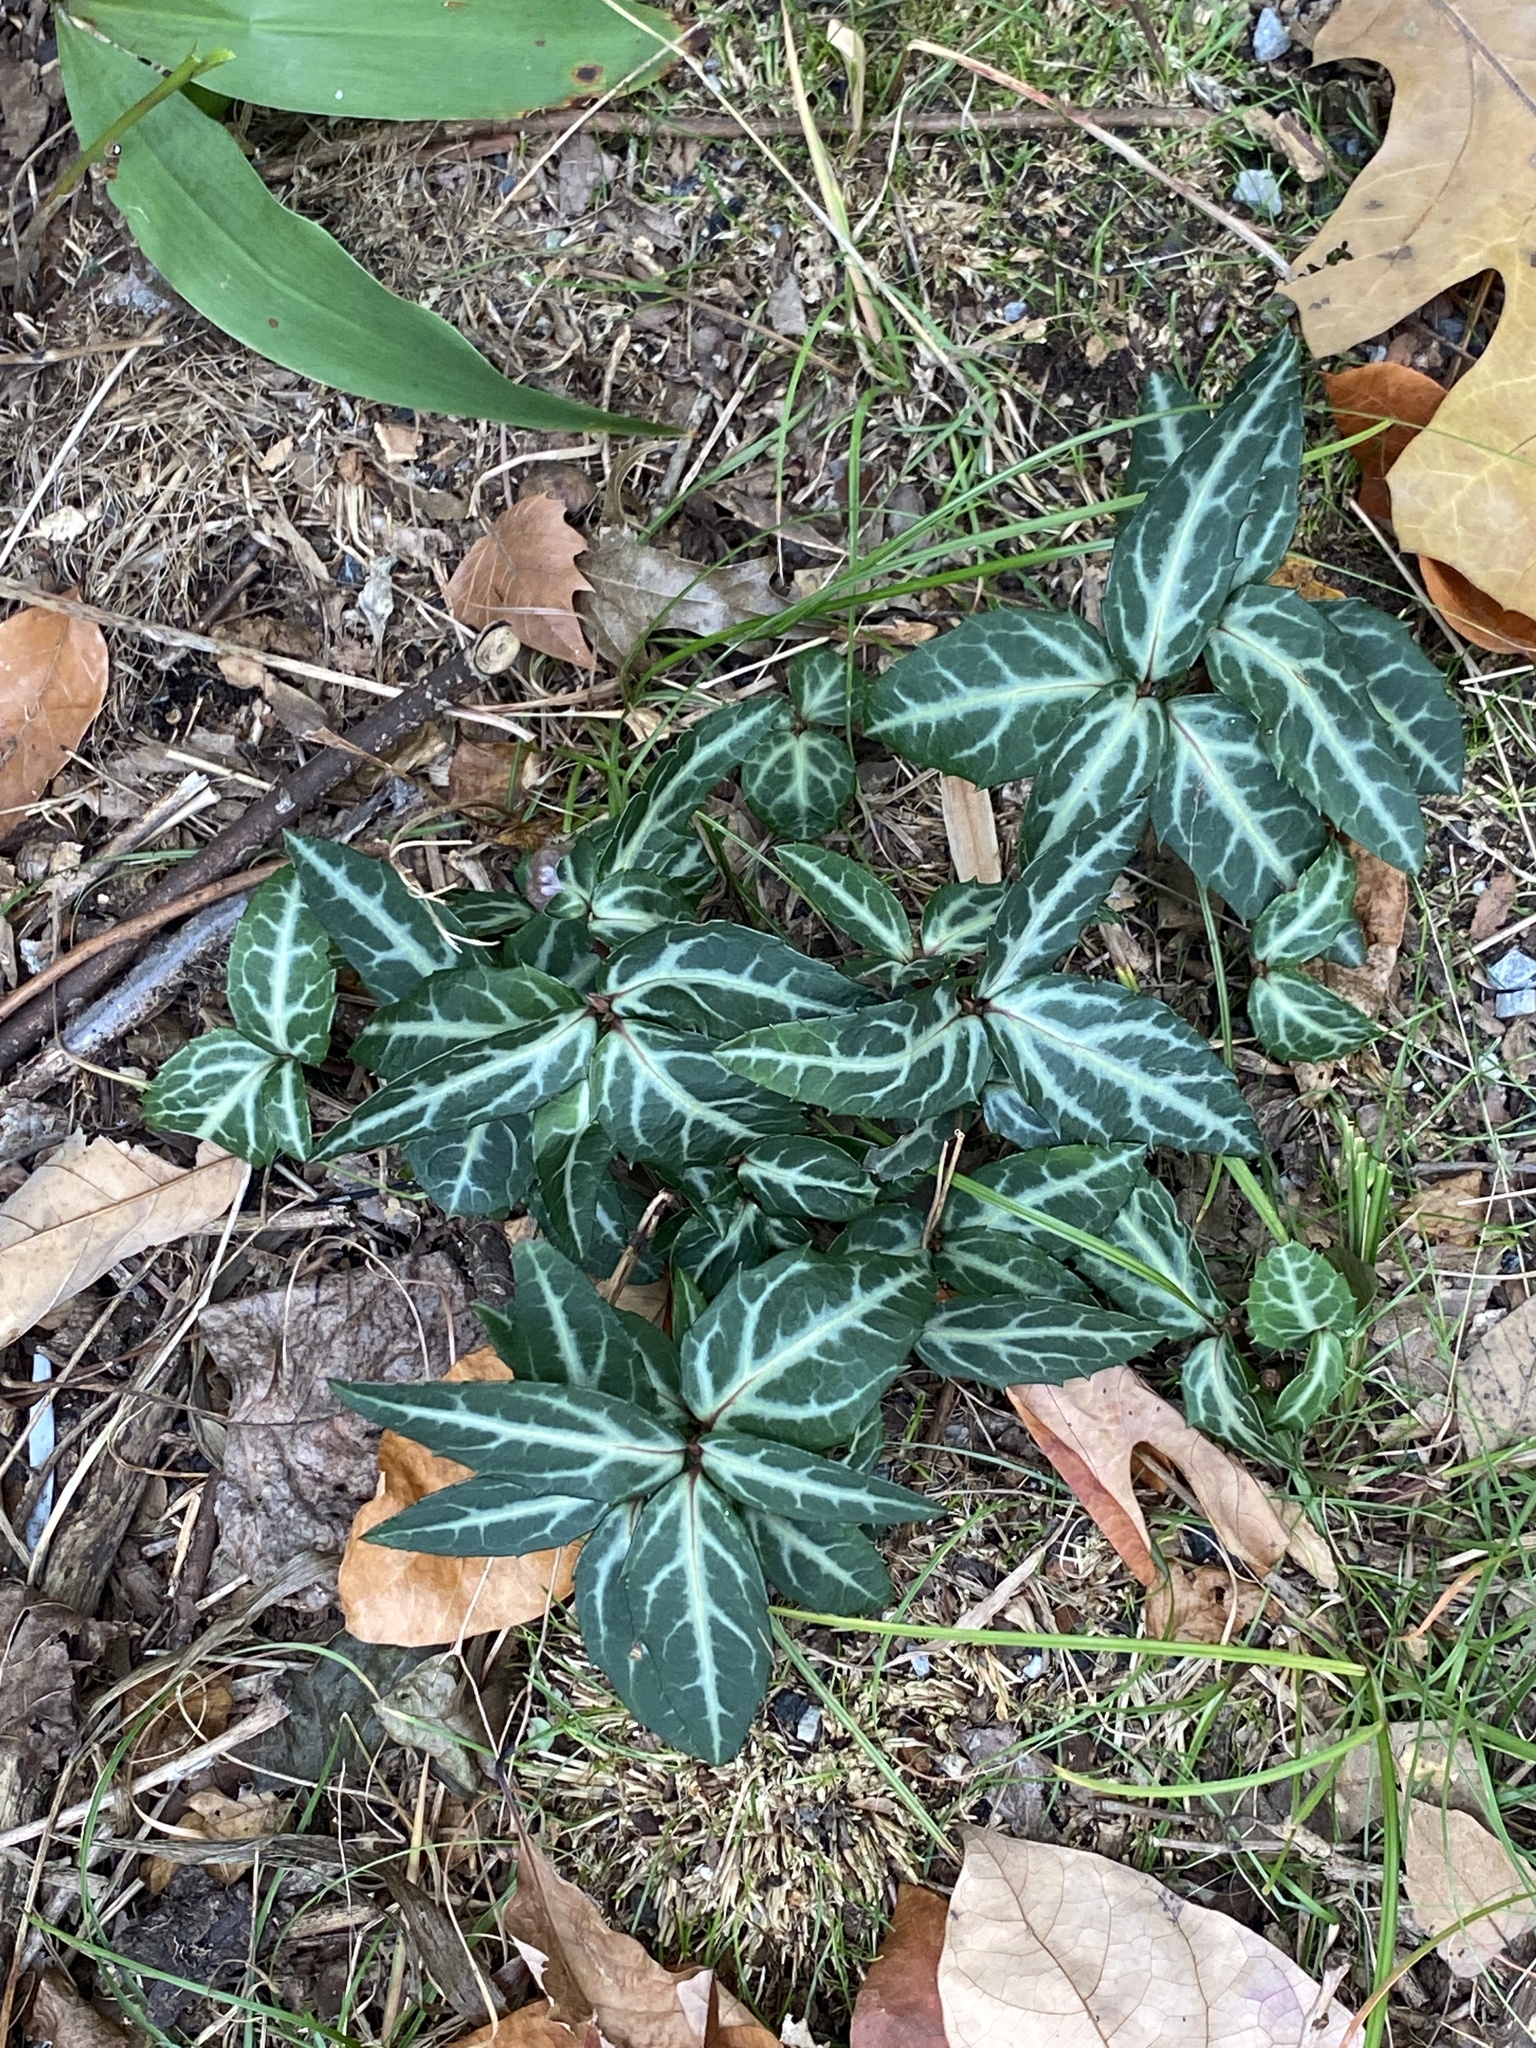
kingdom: Plantae
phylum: Tracheophyta
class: Magnoliopsida
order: Ericales
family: Ericaceae
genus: Chimaphila
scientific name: Chimaphila maculata
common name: Spotted pipsissewa
